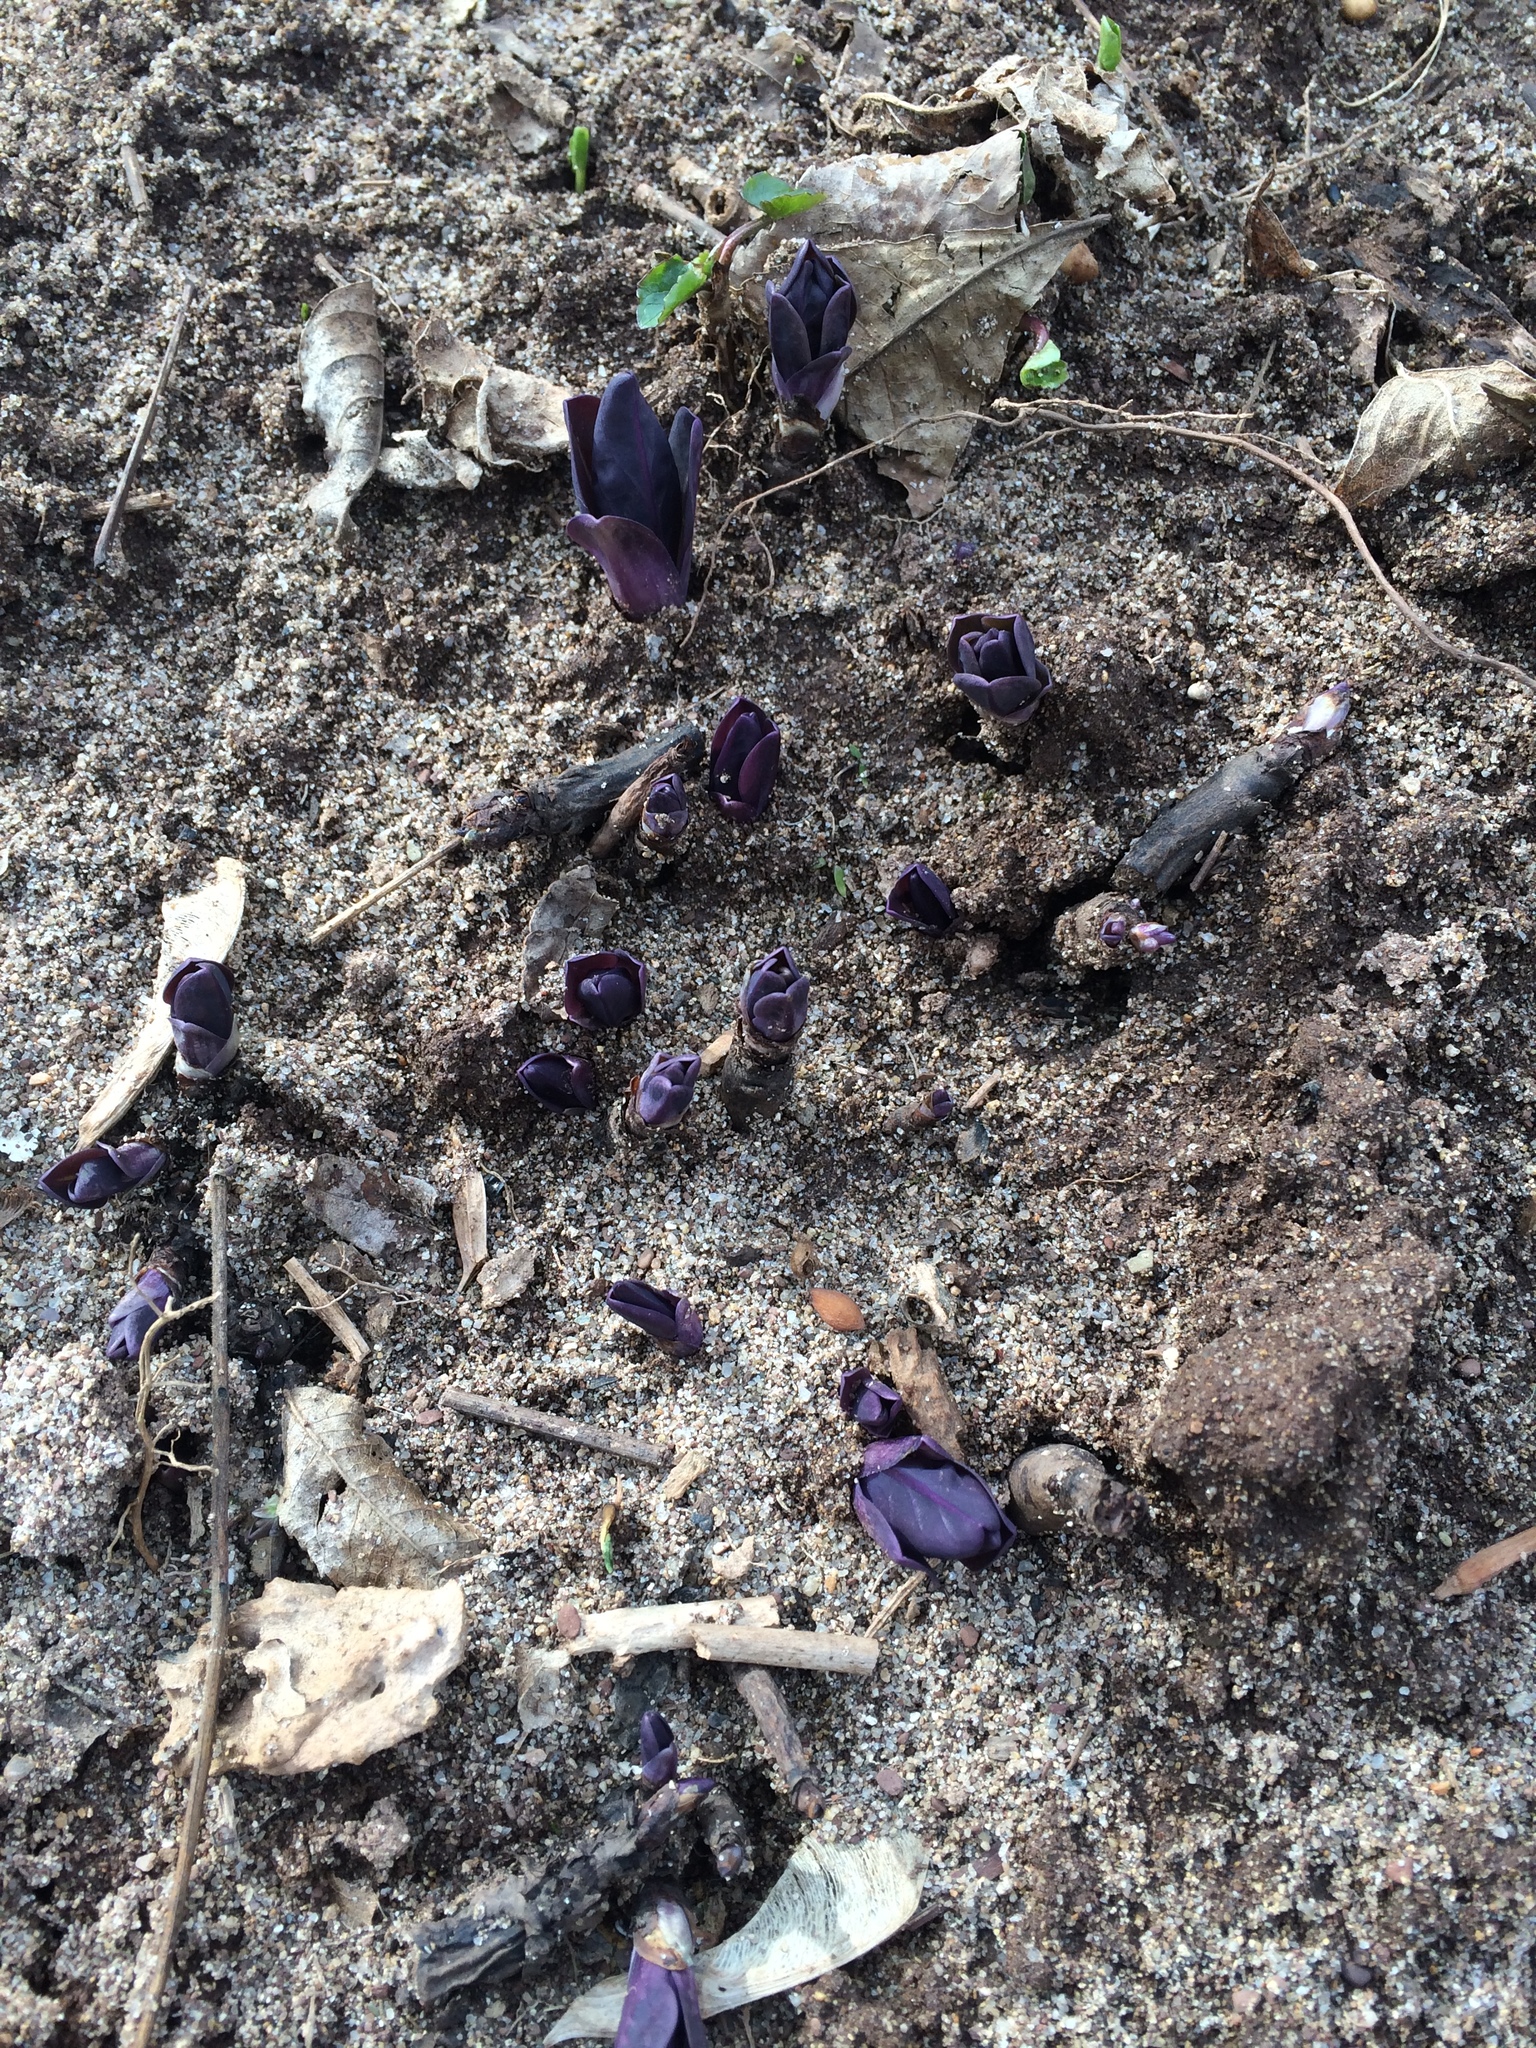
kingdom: Plantae
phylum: Tracheophyta
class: Magnoliopsida
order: Boraginales
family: Boraginaceae
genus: Mertensia
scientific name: Mertensia virginica
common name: Virginia bluebells
